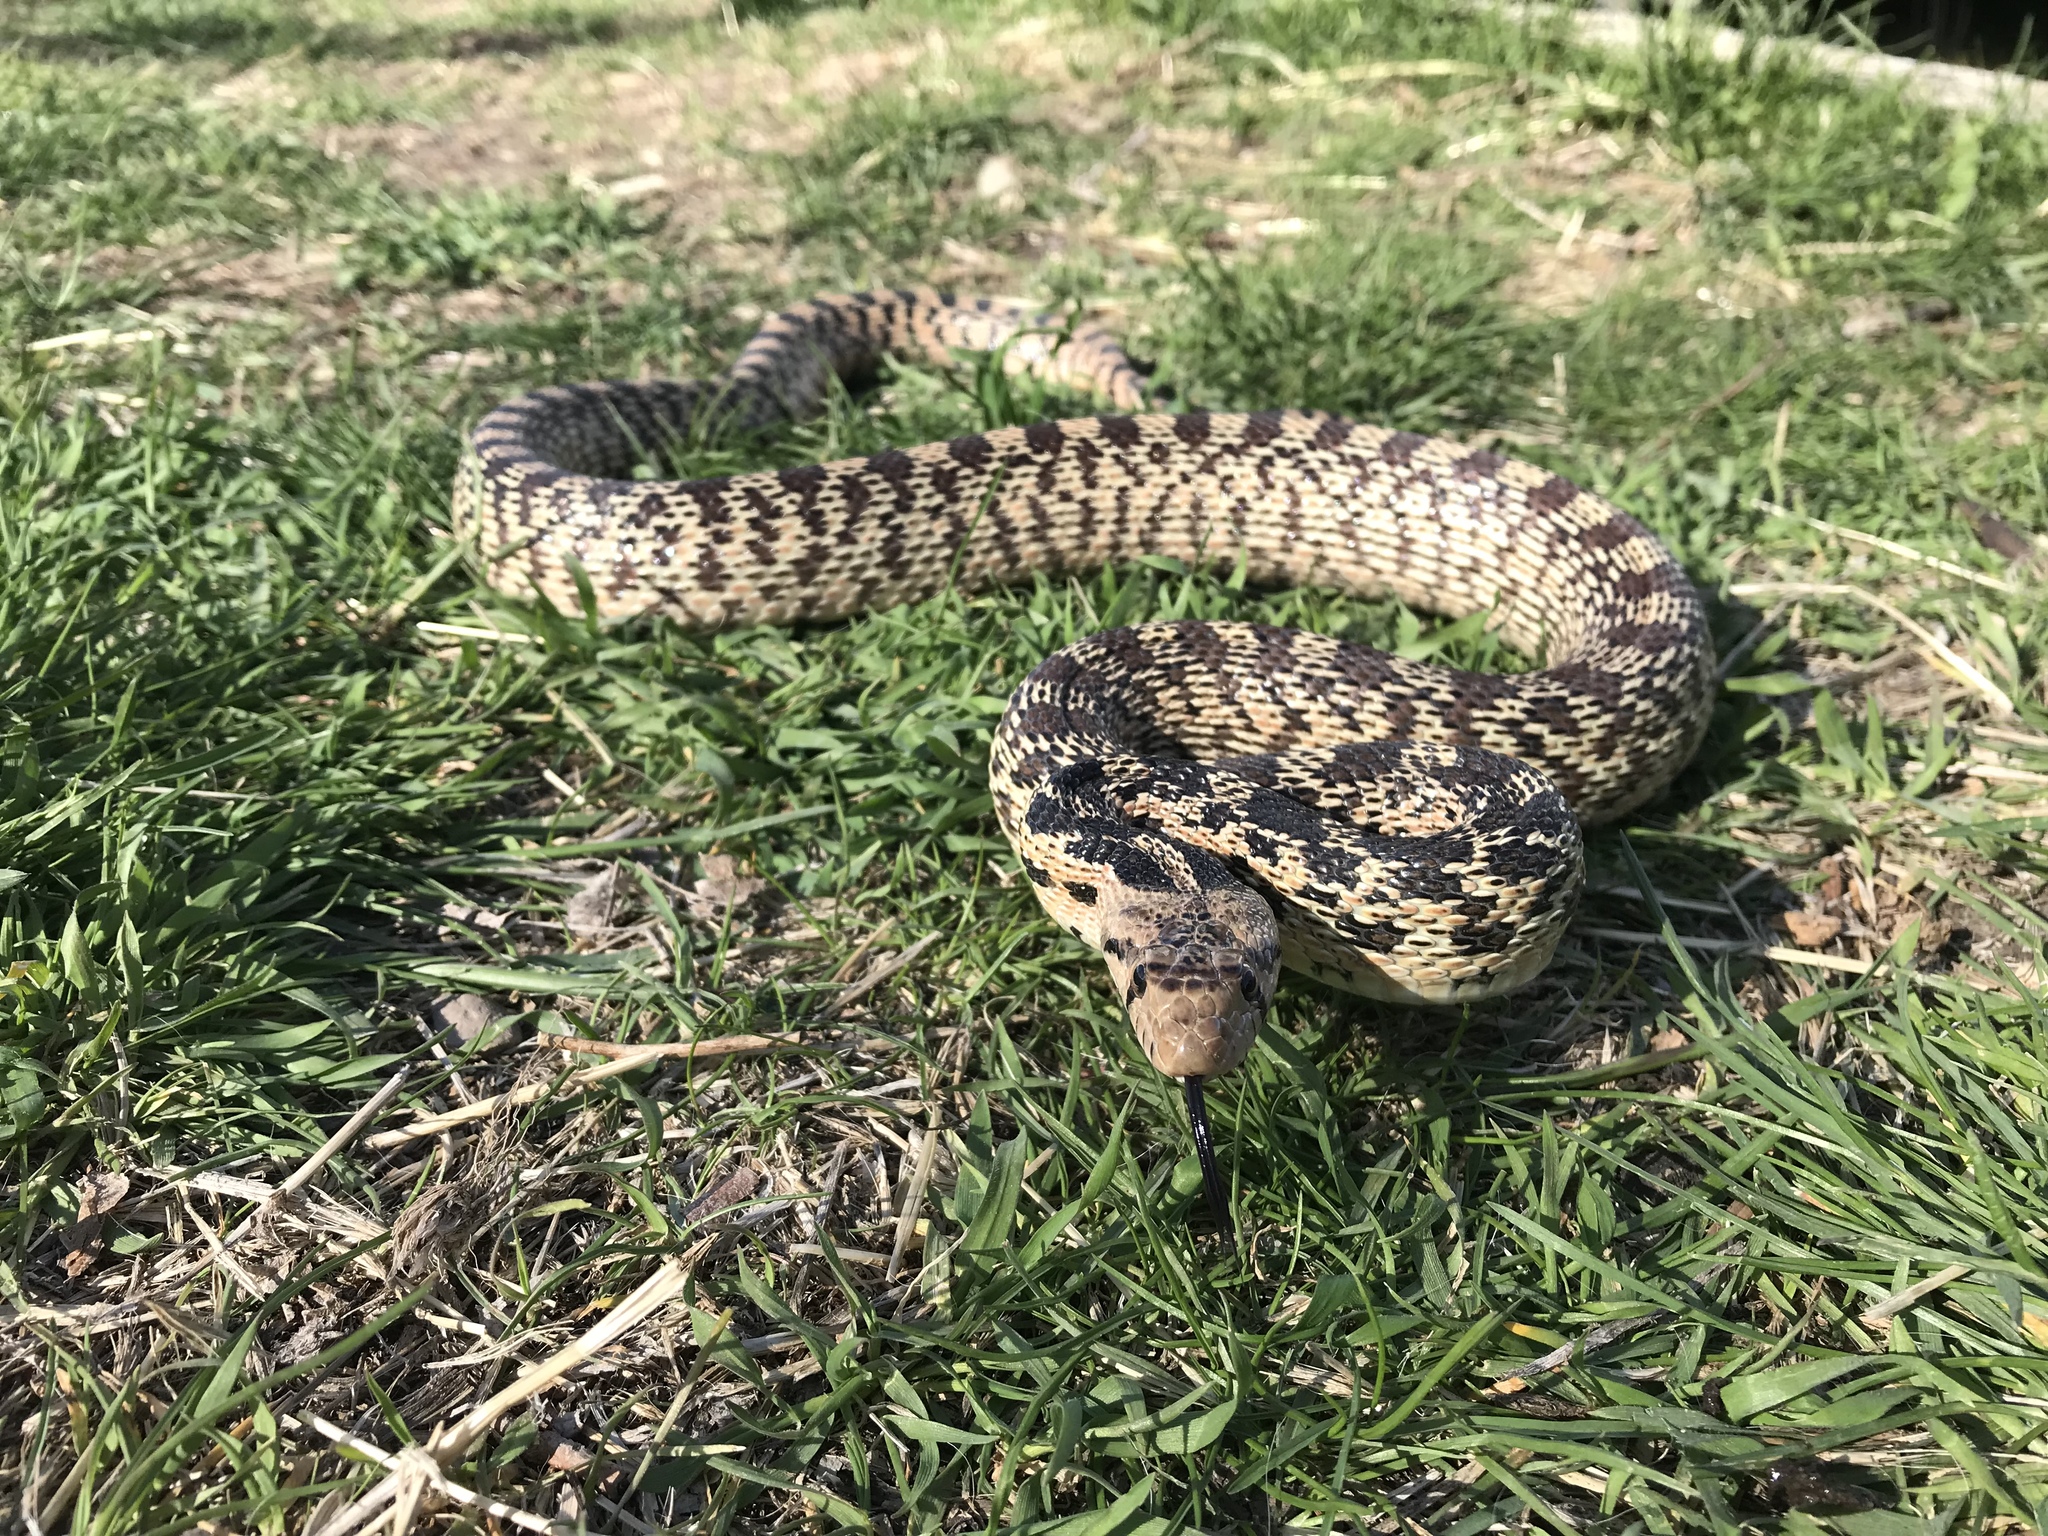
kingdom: Animalia
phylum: Chordata
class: Squamata
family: Colubridae
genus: Pituophis
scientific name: Pituophis catenifer
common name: Gopher snake
